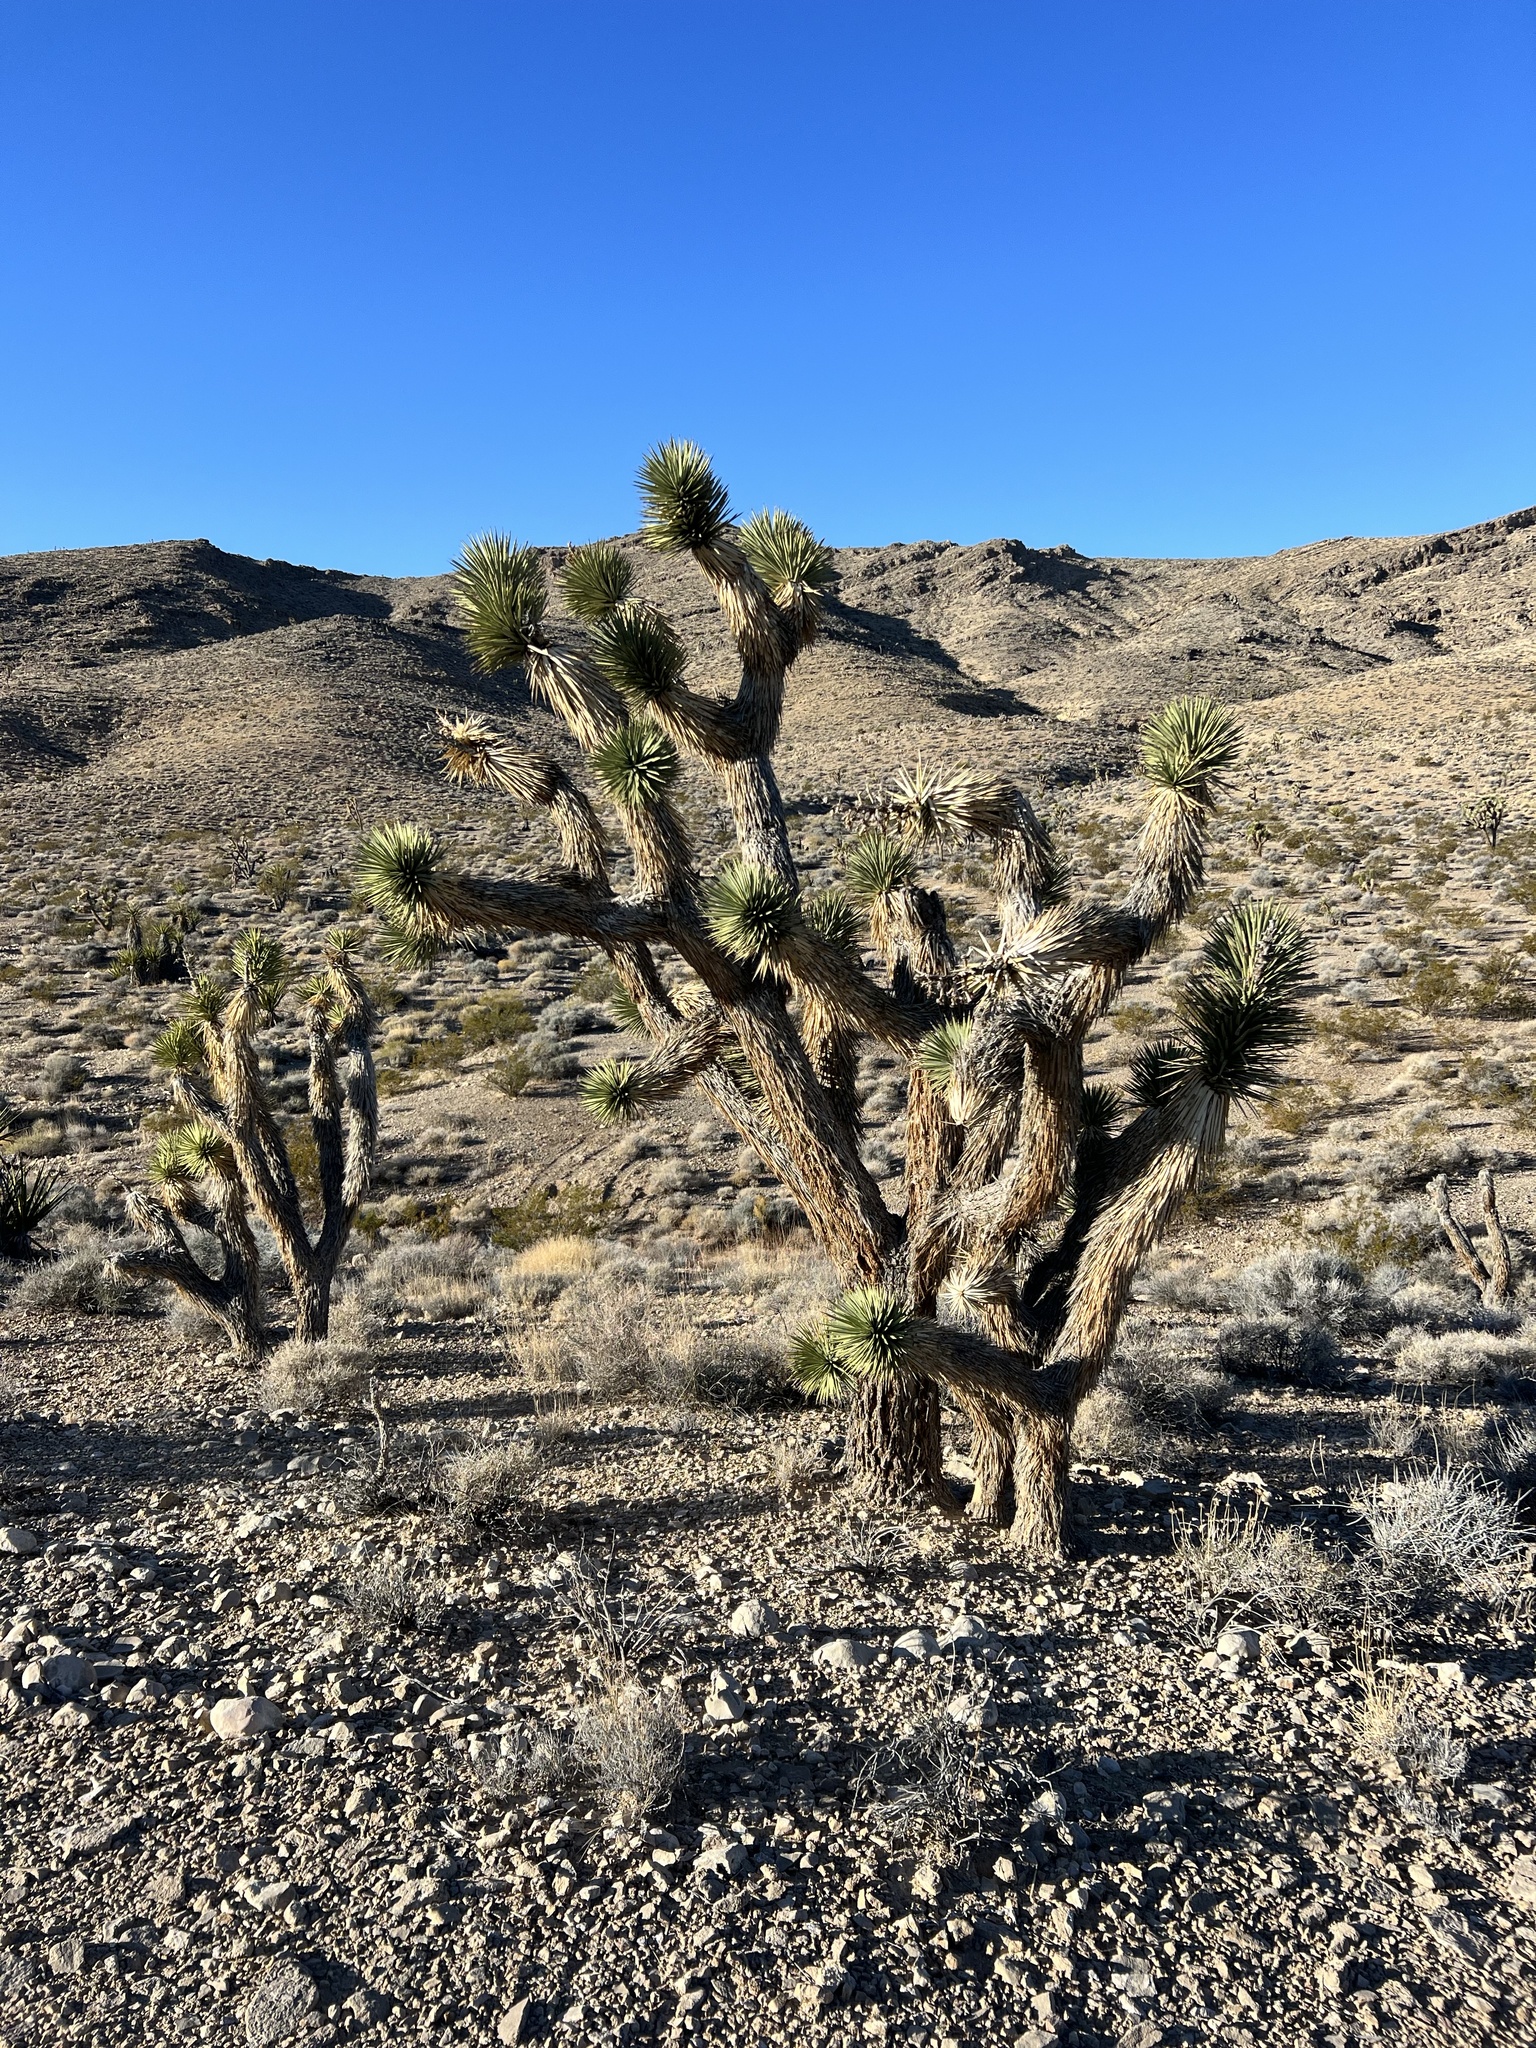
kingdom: Plantae
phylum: Tracheophyta
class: Liliopsida
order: Asparagales
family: Asparagaceae
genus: Yucca
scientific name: Yucca brevifolia
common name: Joshua tree
